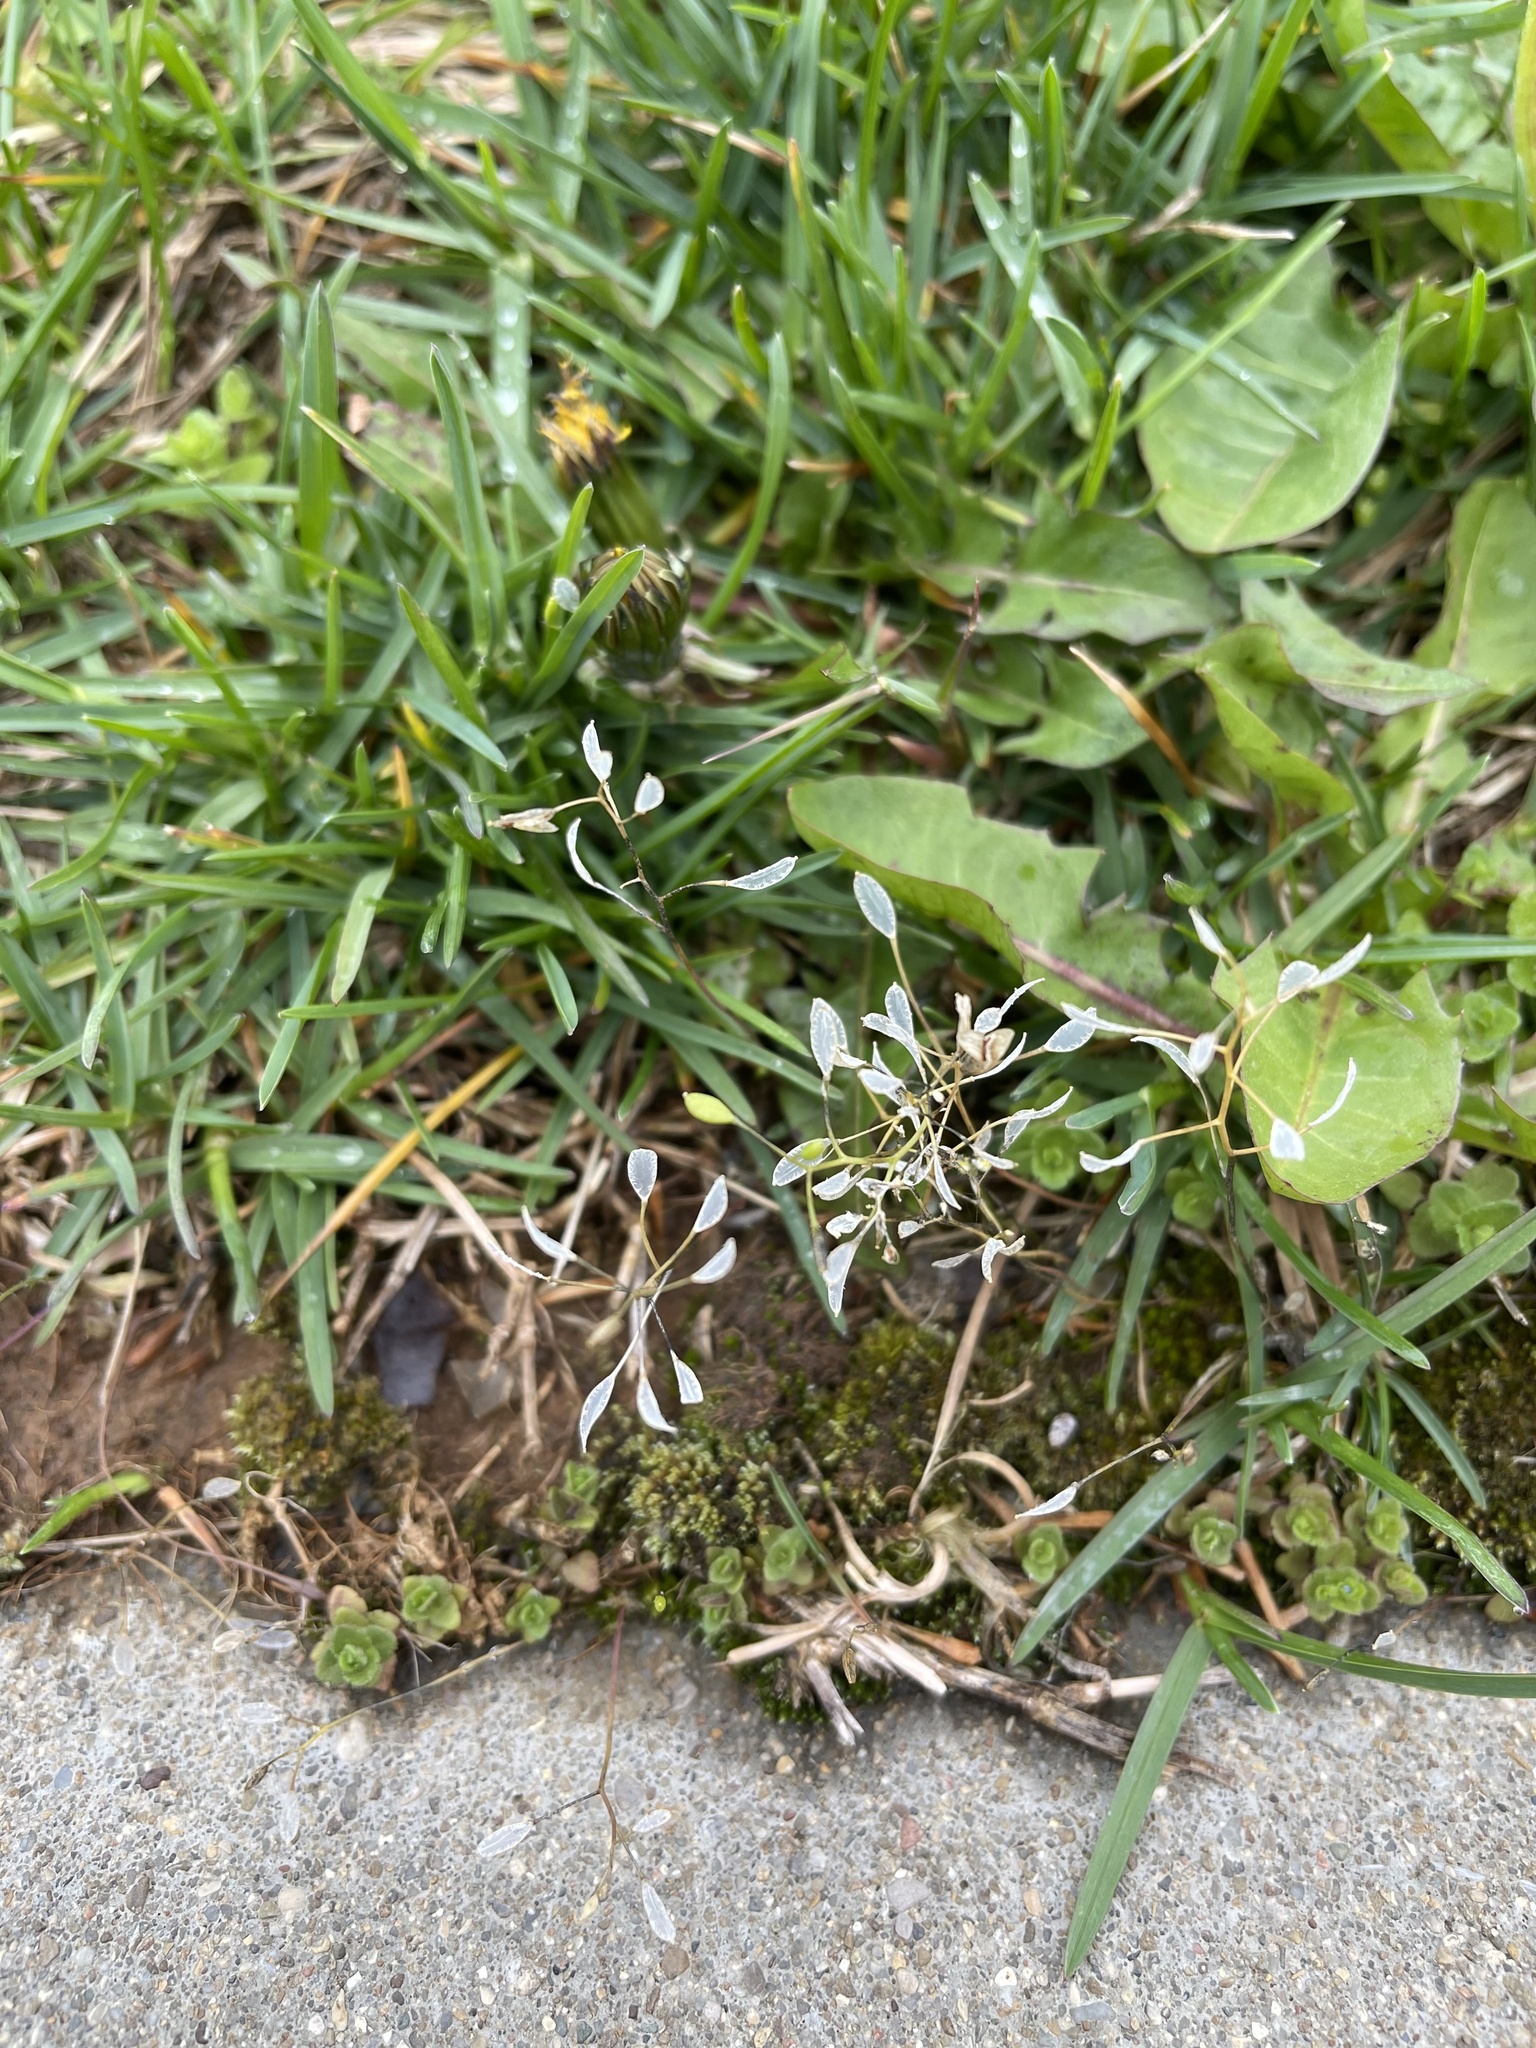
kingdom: Plantae
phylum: Tracheophyta
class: Magnoliopsida
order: Brassicales
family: Brassicaceae
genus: Draba
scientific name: Draba verna
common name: Spring draba
